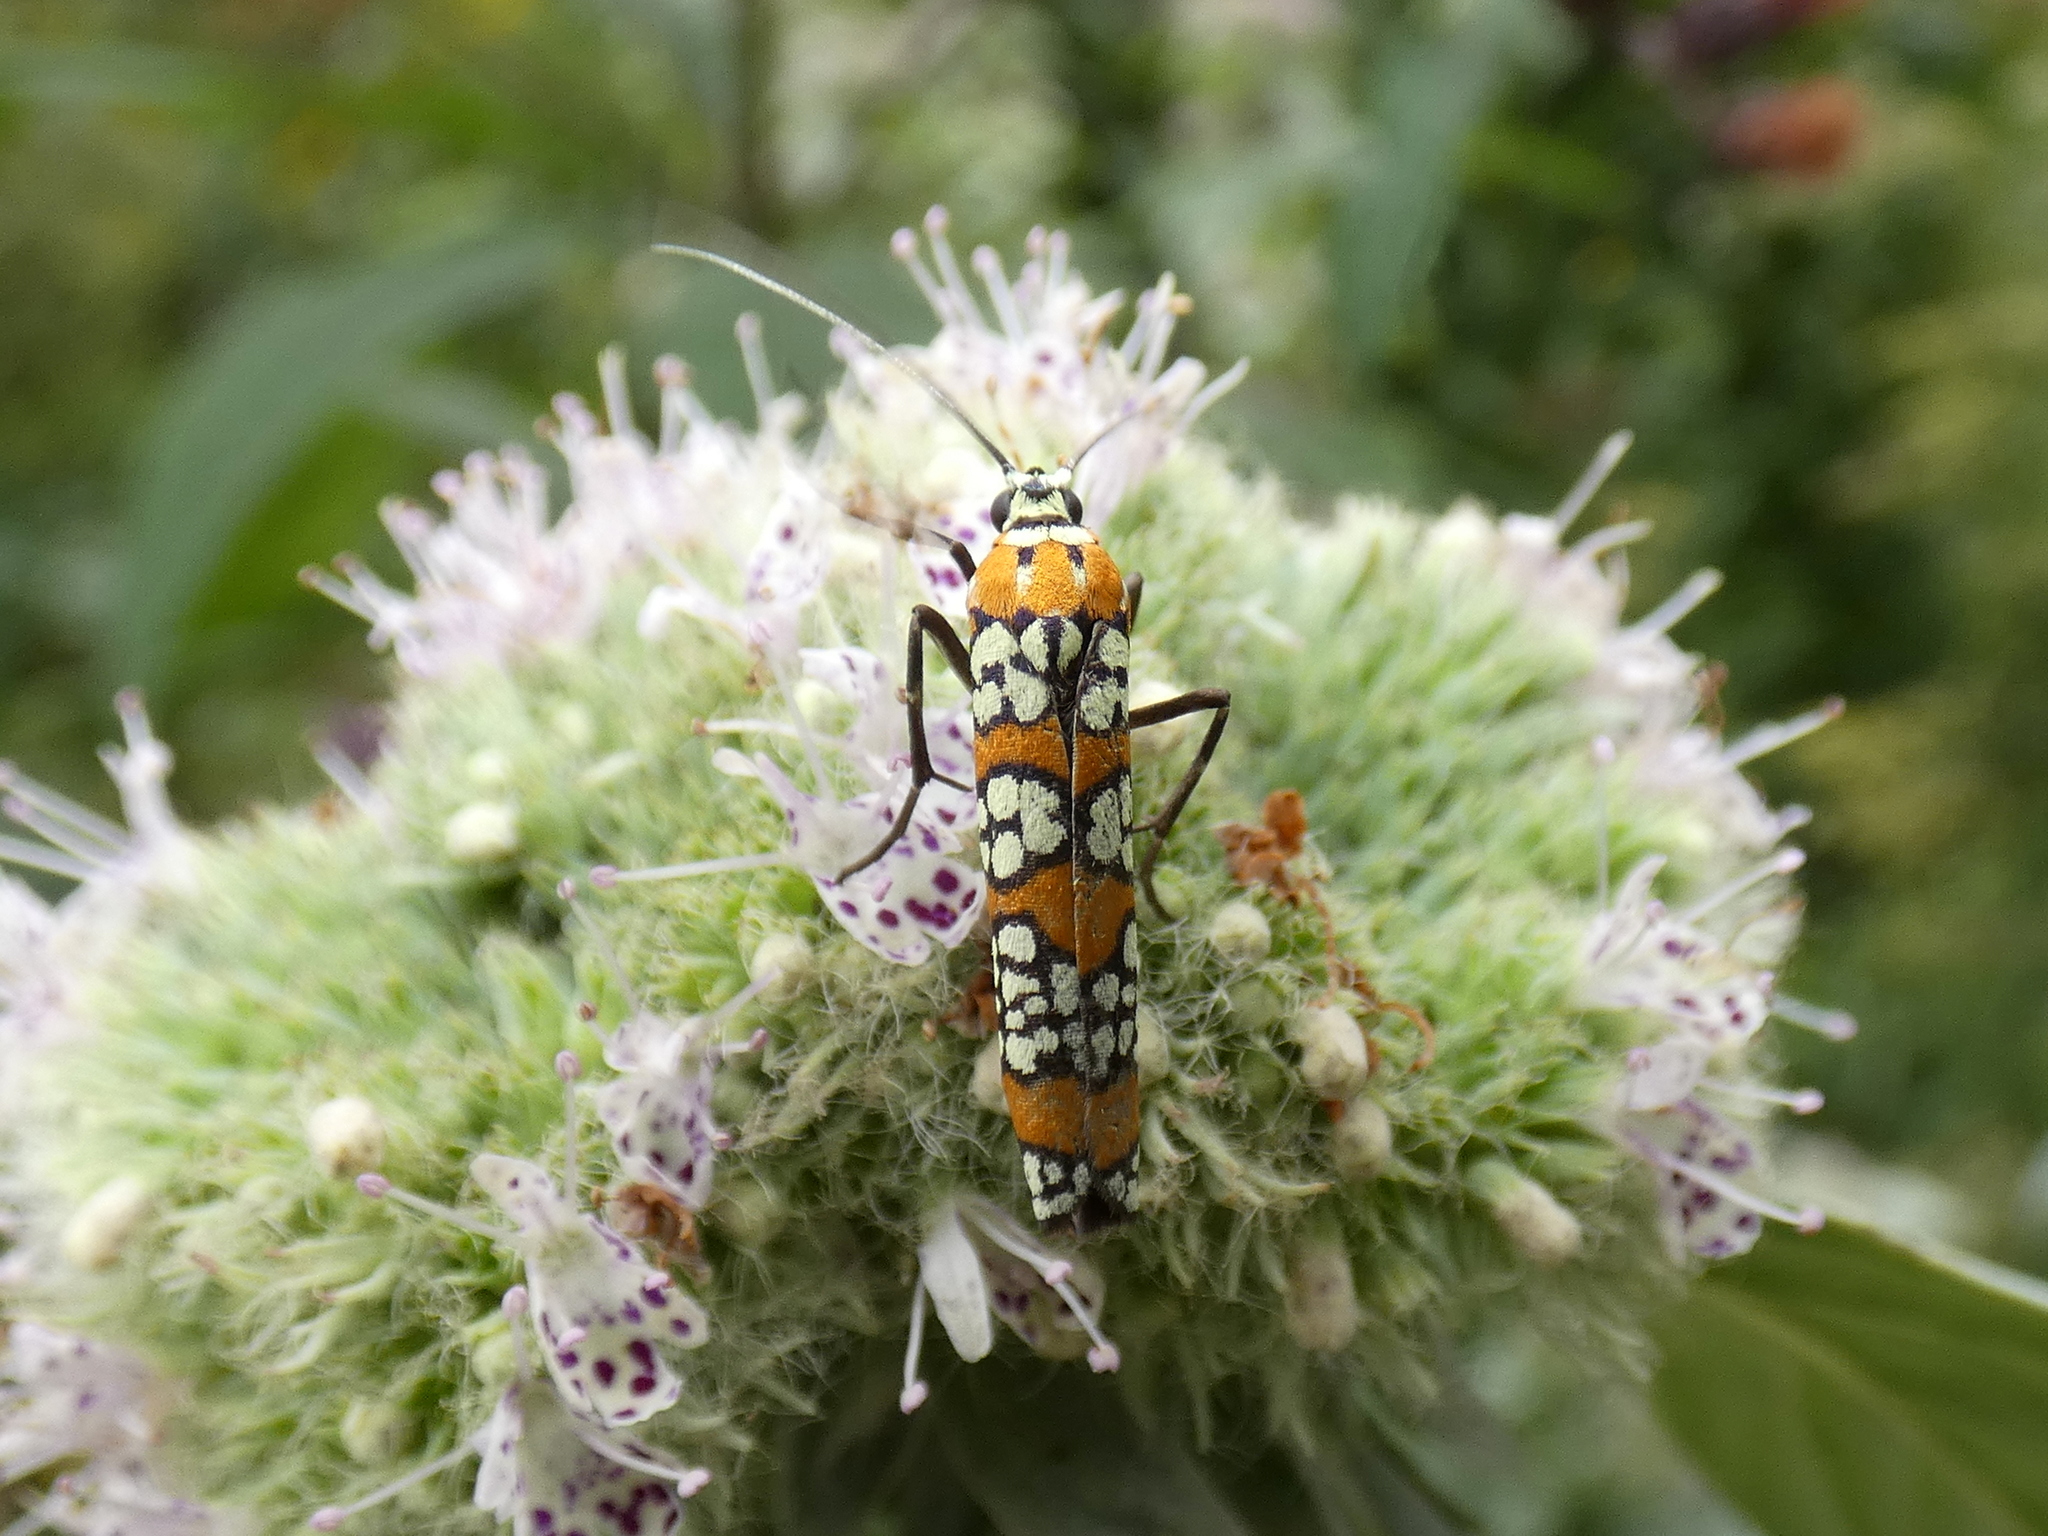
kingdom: Animalia
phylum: Arthropoda
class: Insecta
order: Lepidoptera
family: Attevidae
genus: Atteva
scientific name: Atteva punctella
